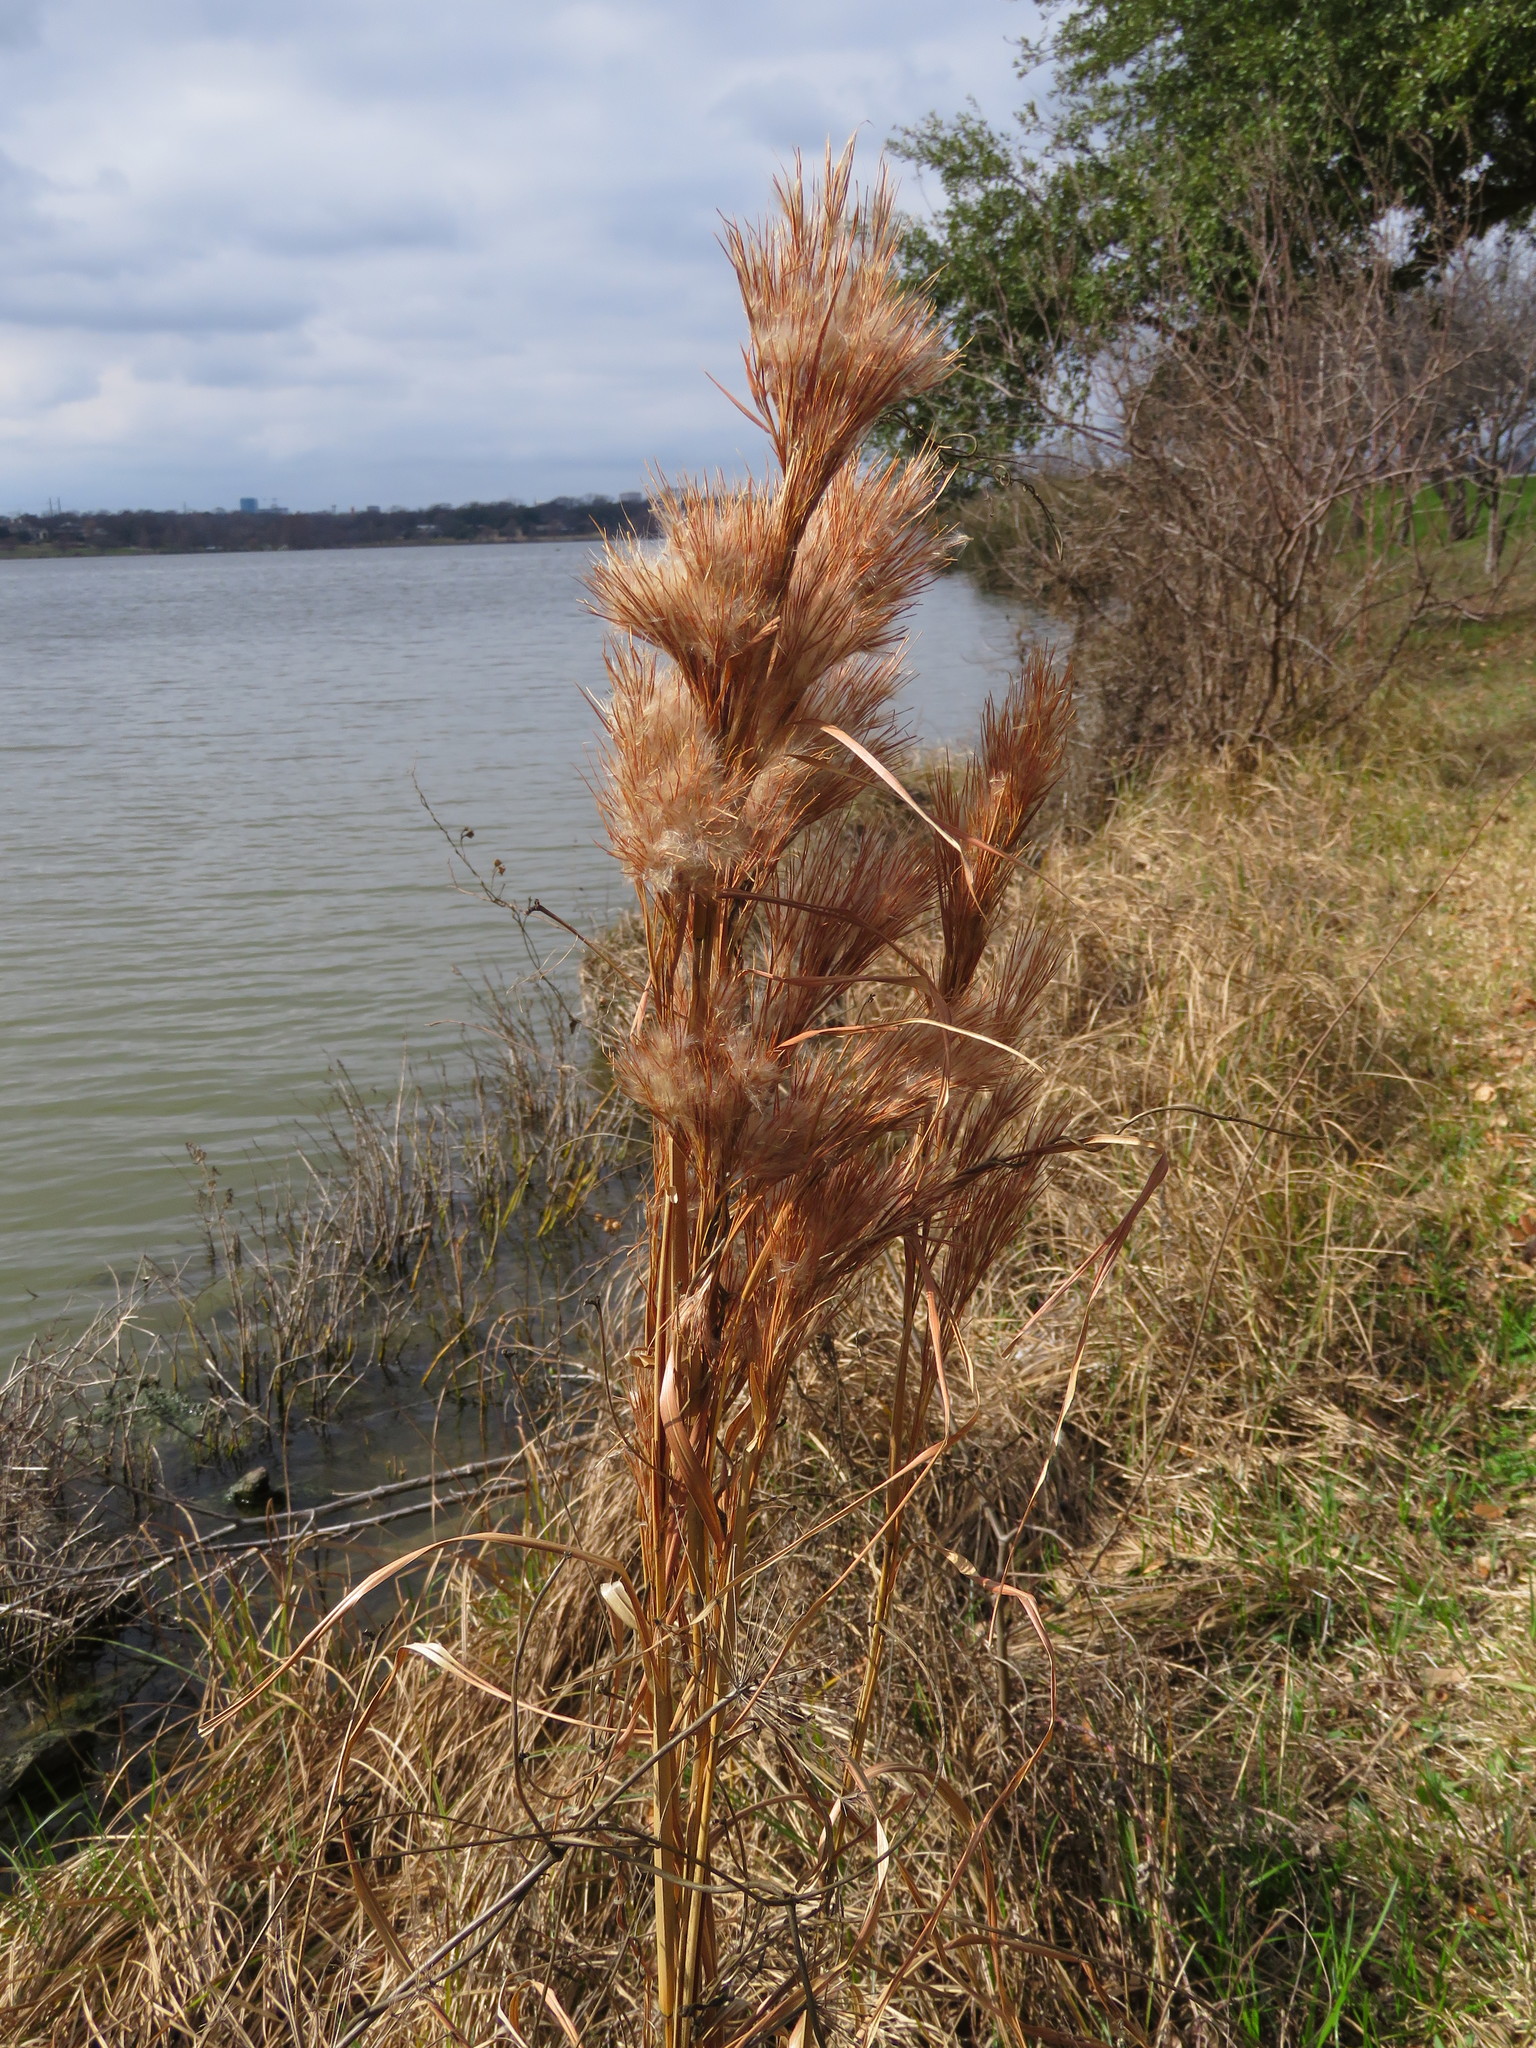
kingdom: Plantae
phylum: Tracheophyta
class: Liliopsida
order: Poales
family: Poaceae
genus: Andropogon
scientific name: Andropogon tenuispatheus
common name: Bushy bluestem
